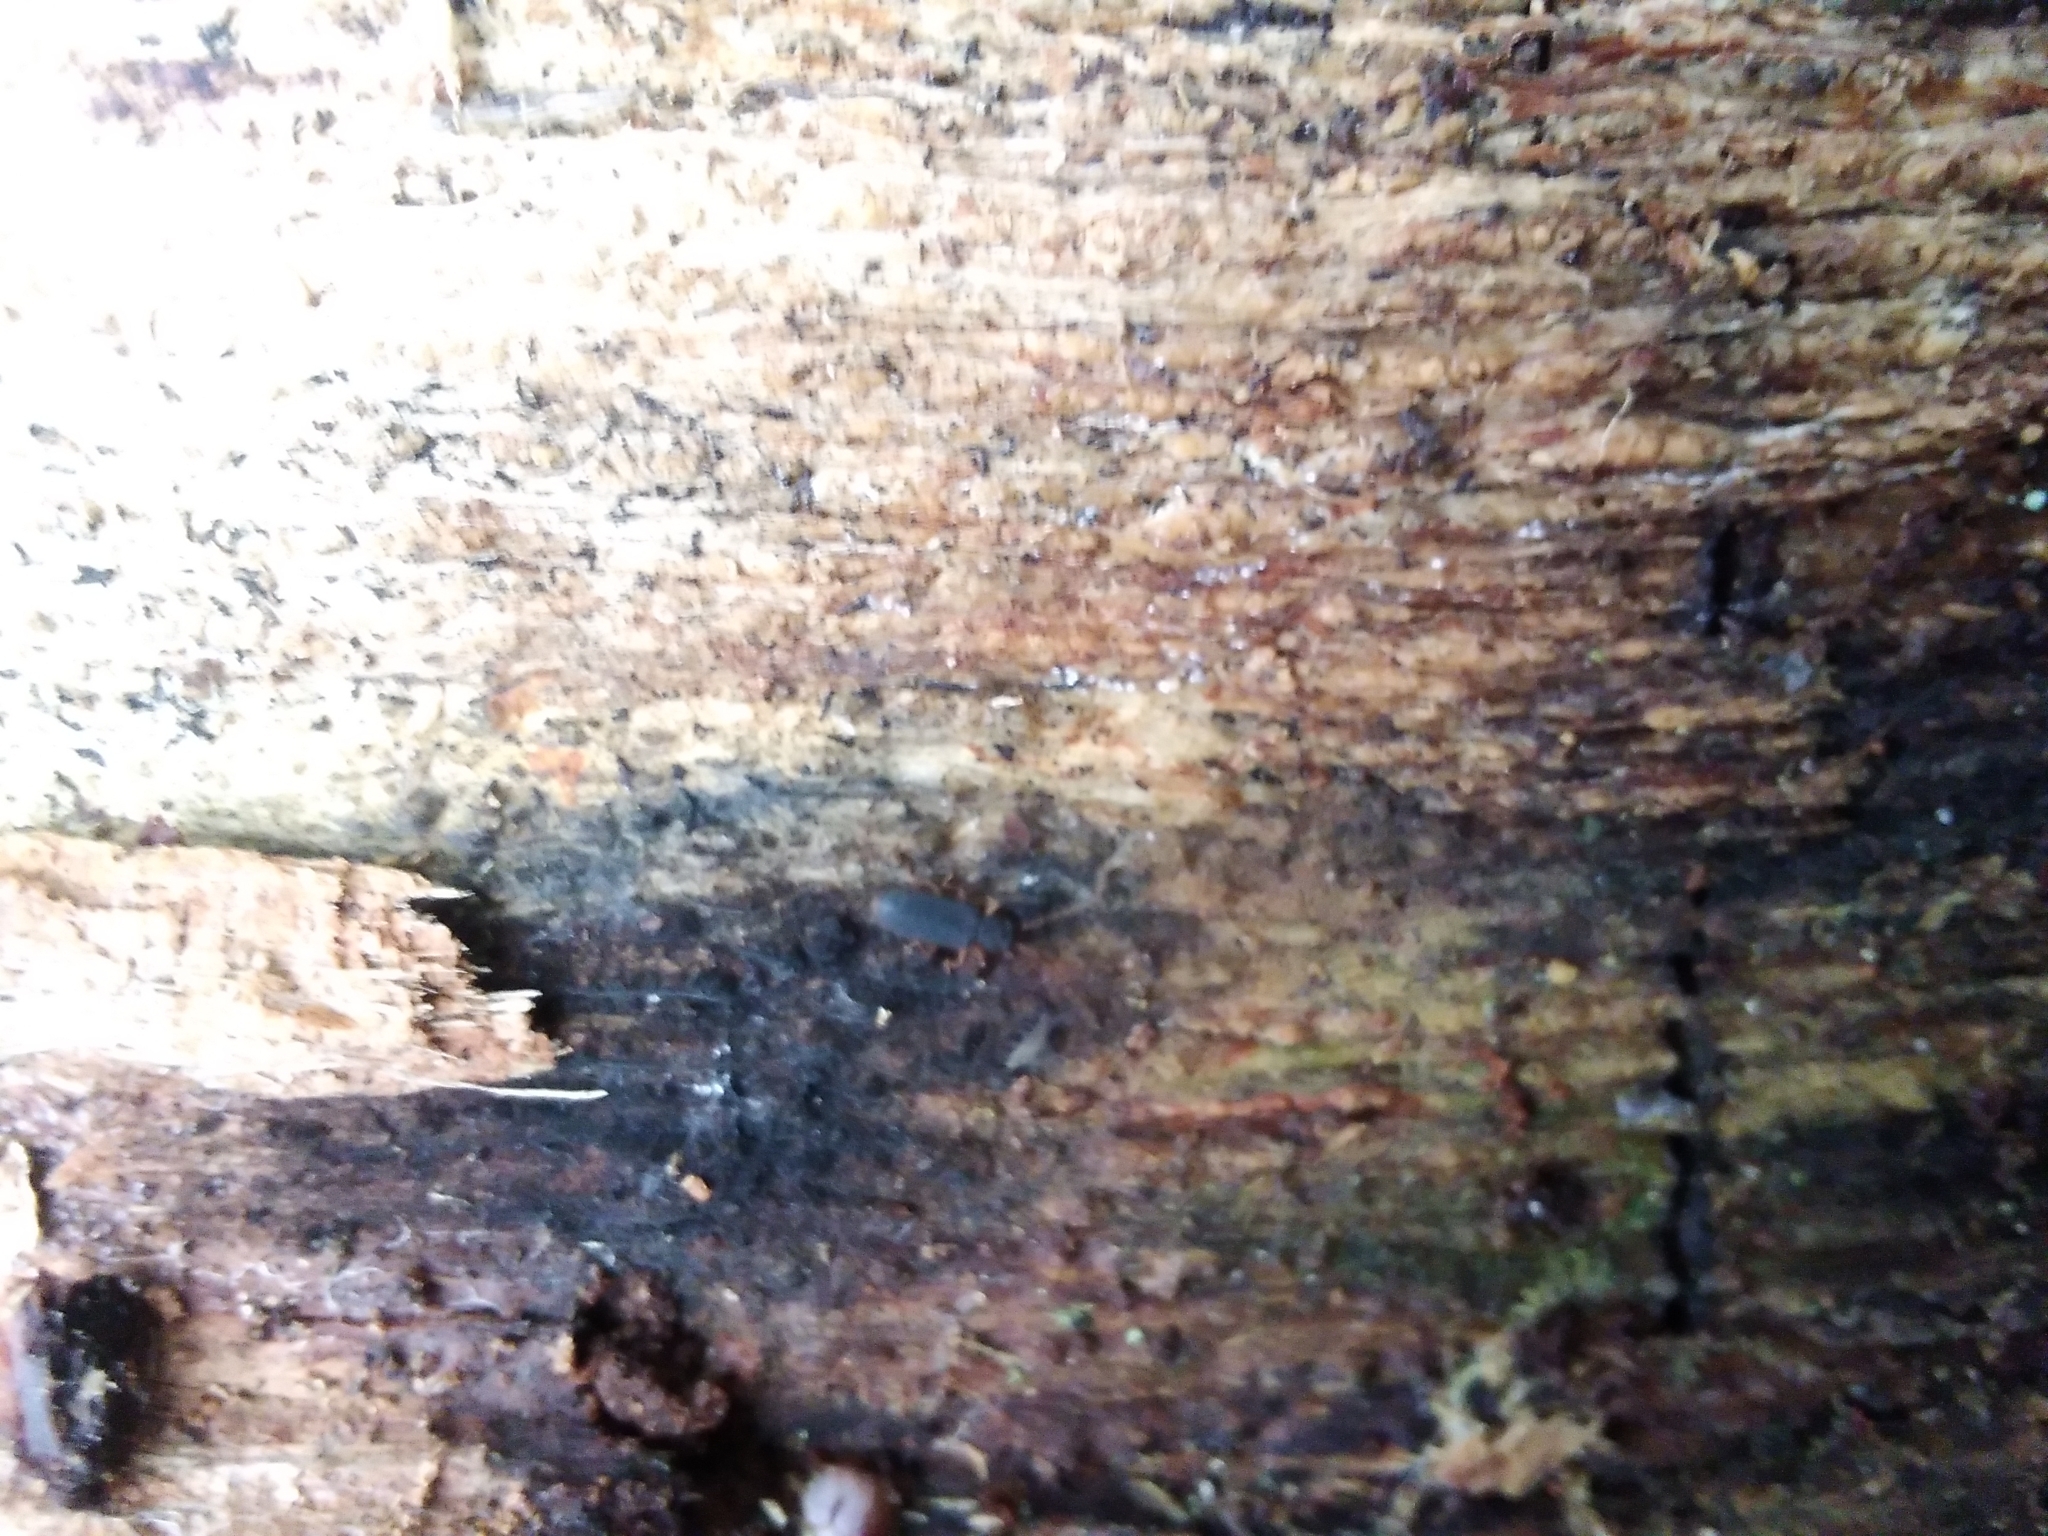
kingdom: Animalia
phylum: Arthropoda
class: Insecta
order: Coleoptera
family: Silvanidae
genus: Uleiota
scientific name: Uleiota planatus
